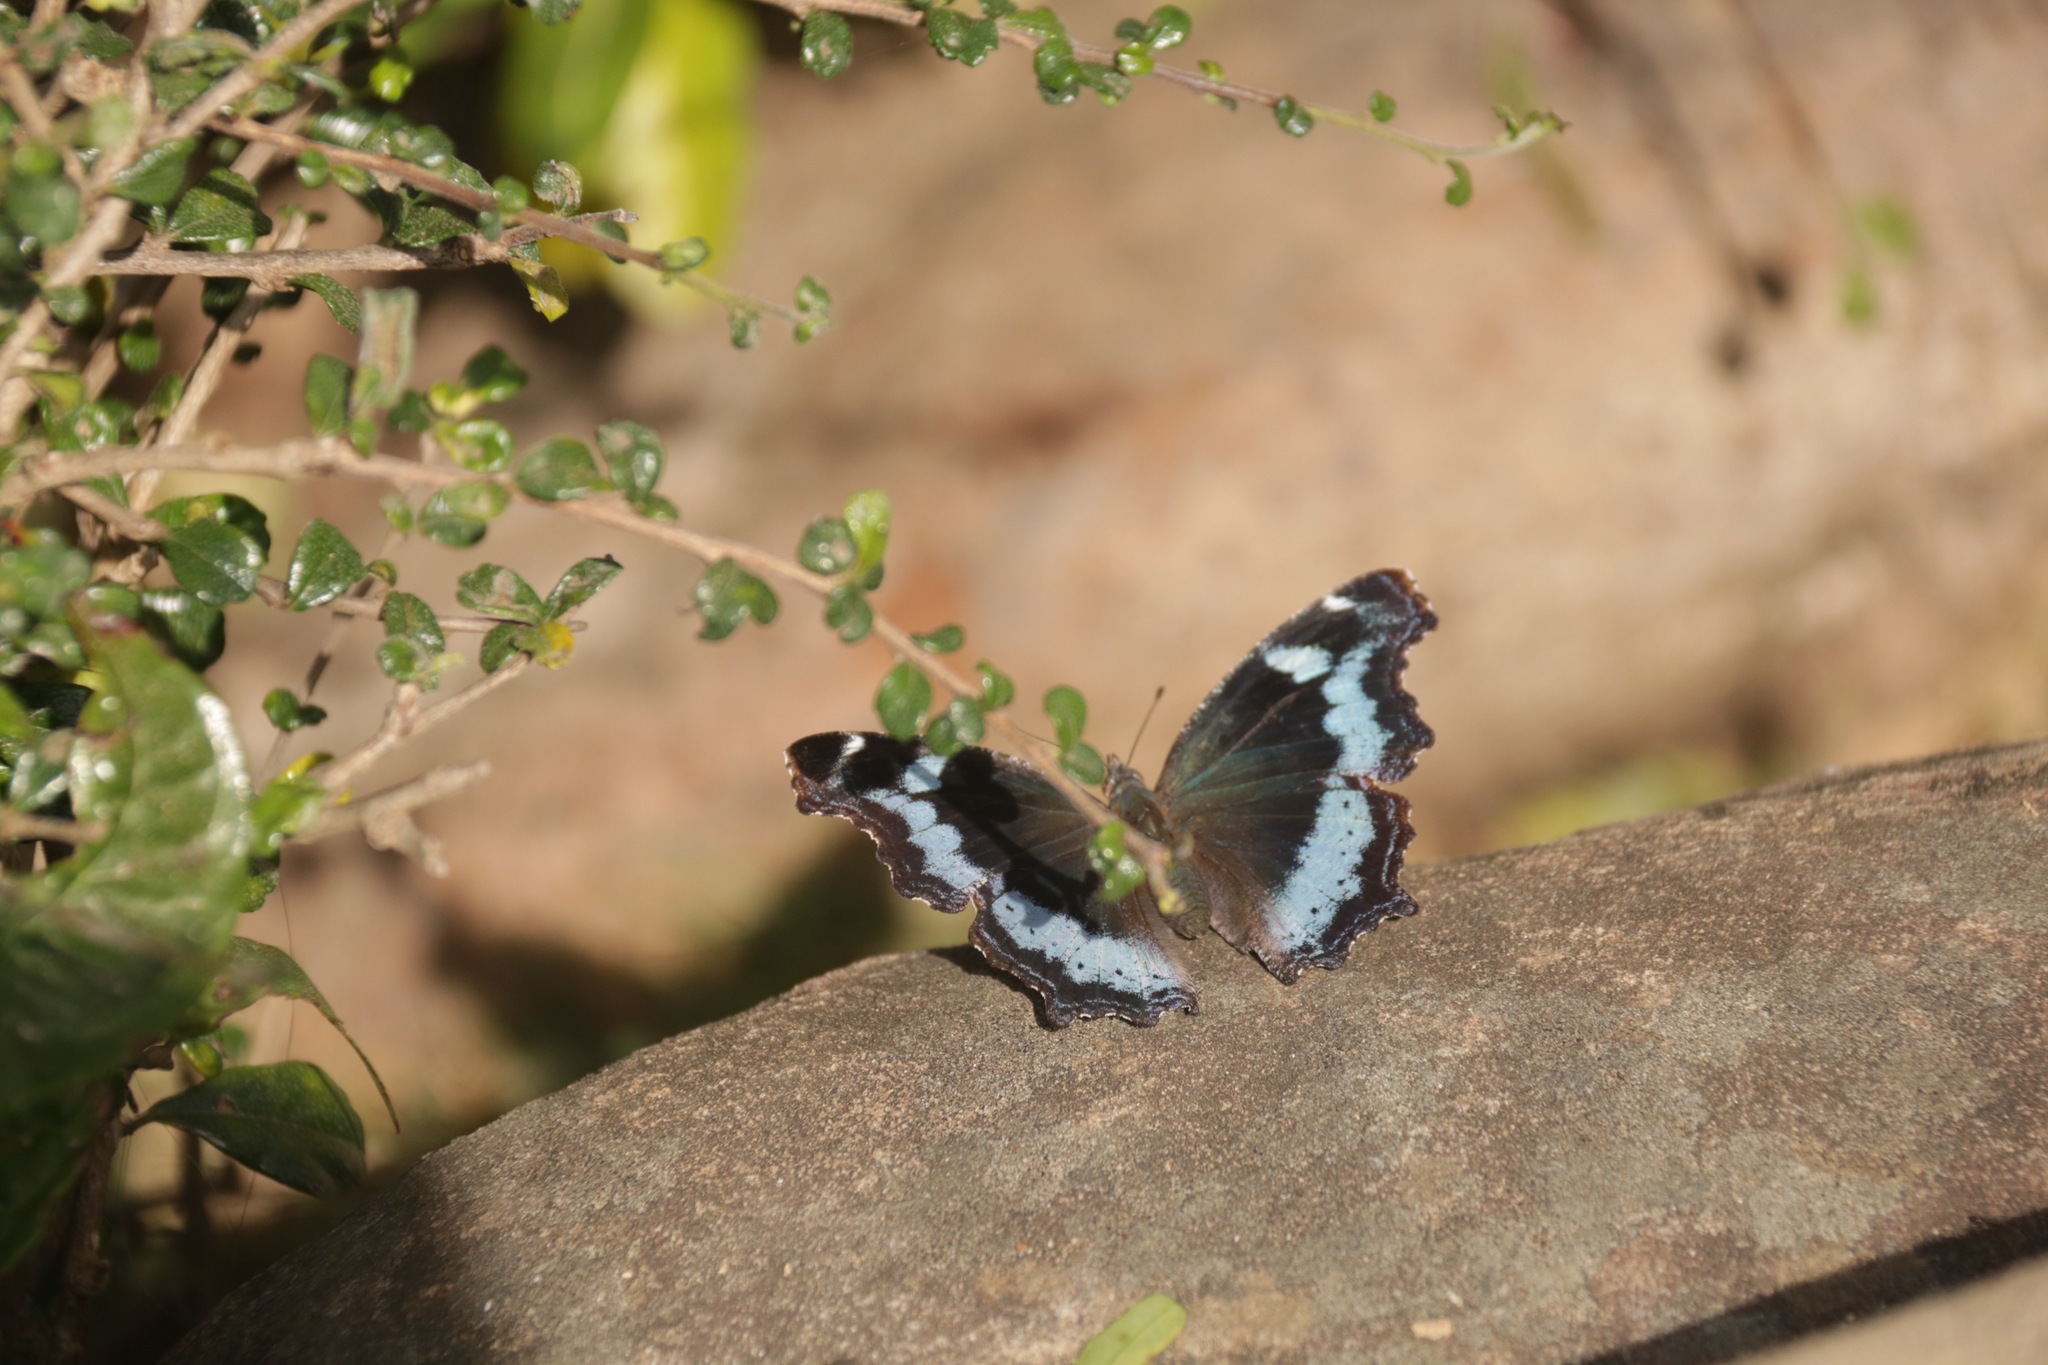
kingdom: Animalia
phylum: Arthropoda
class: Insecta
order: Lepidoptera
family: Nymphalidae
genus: Vanessa
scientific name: Vanessa Kaniska canace
